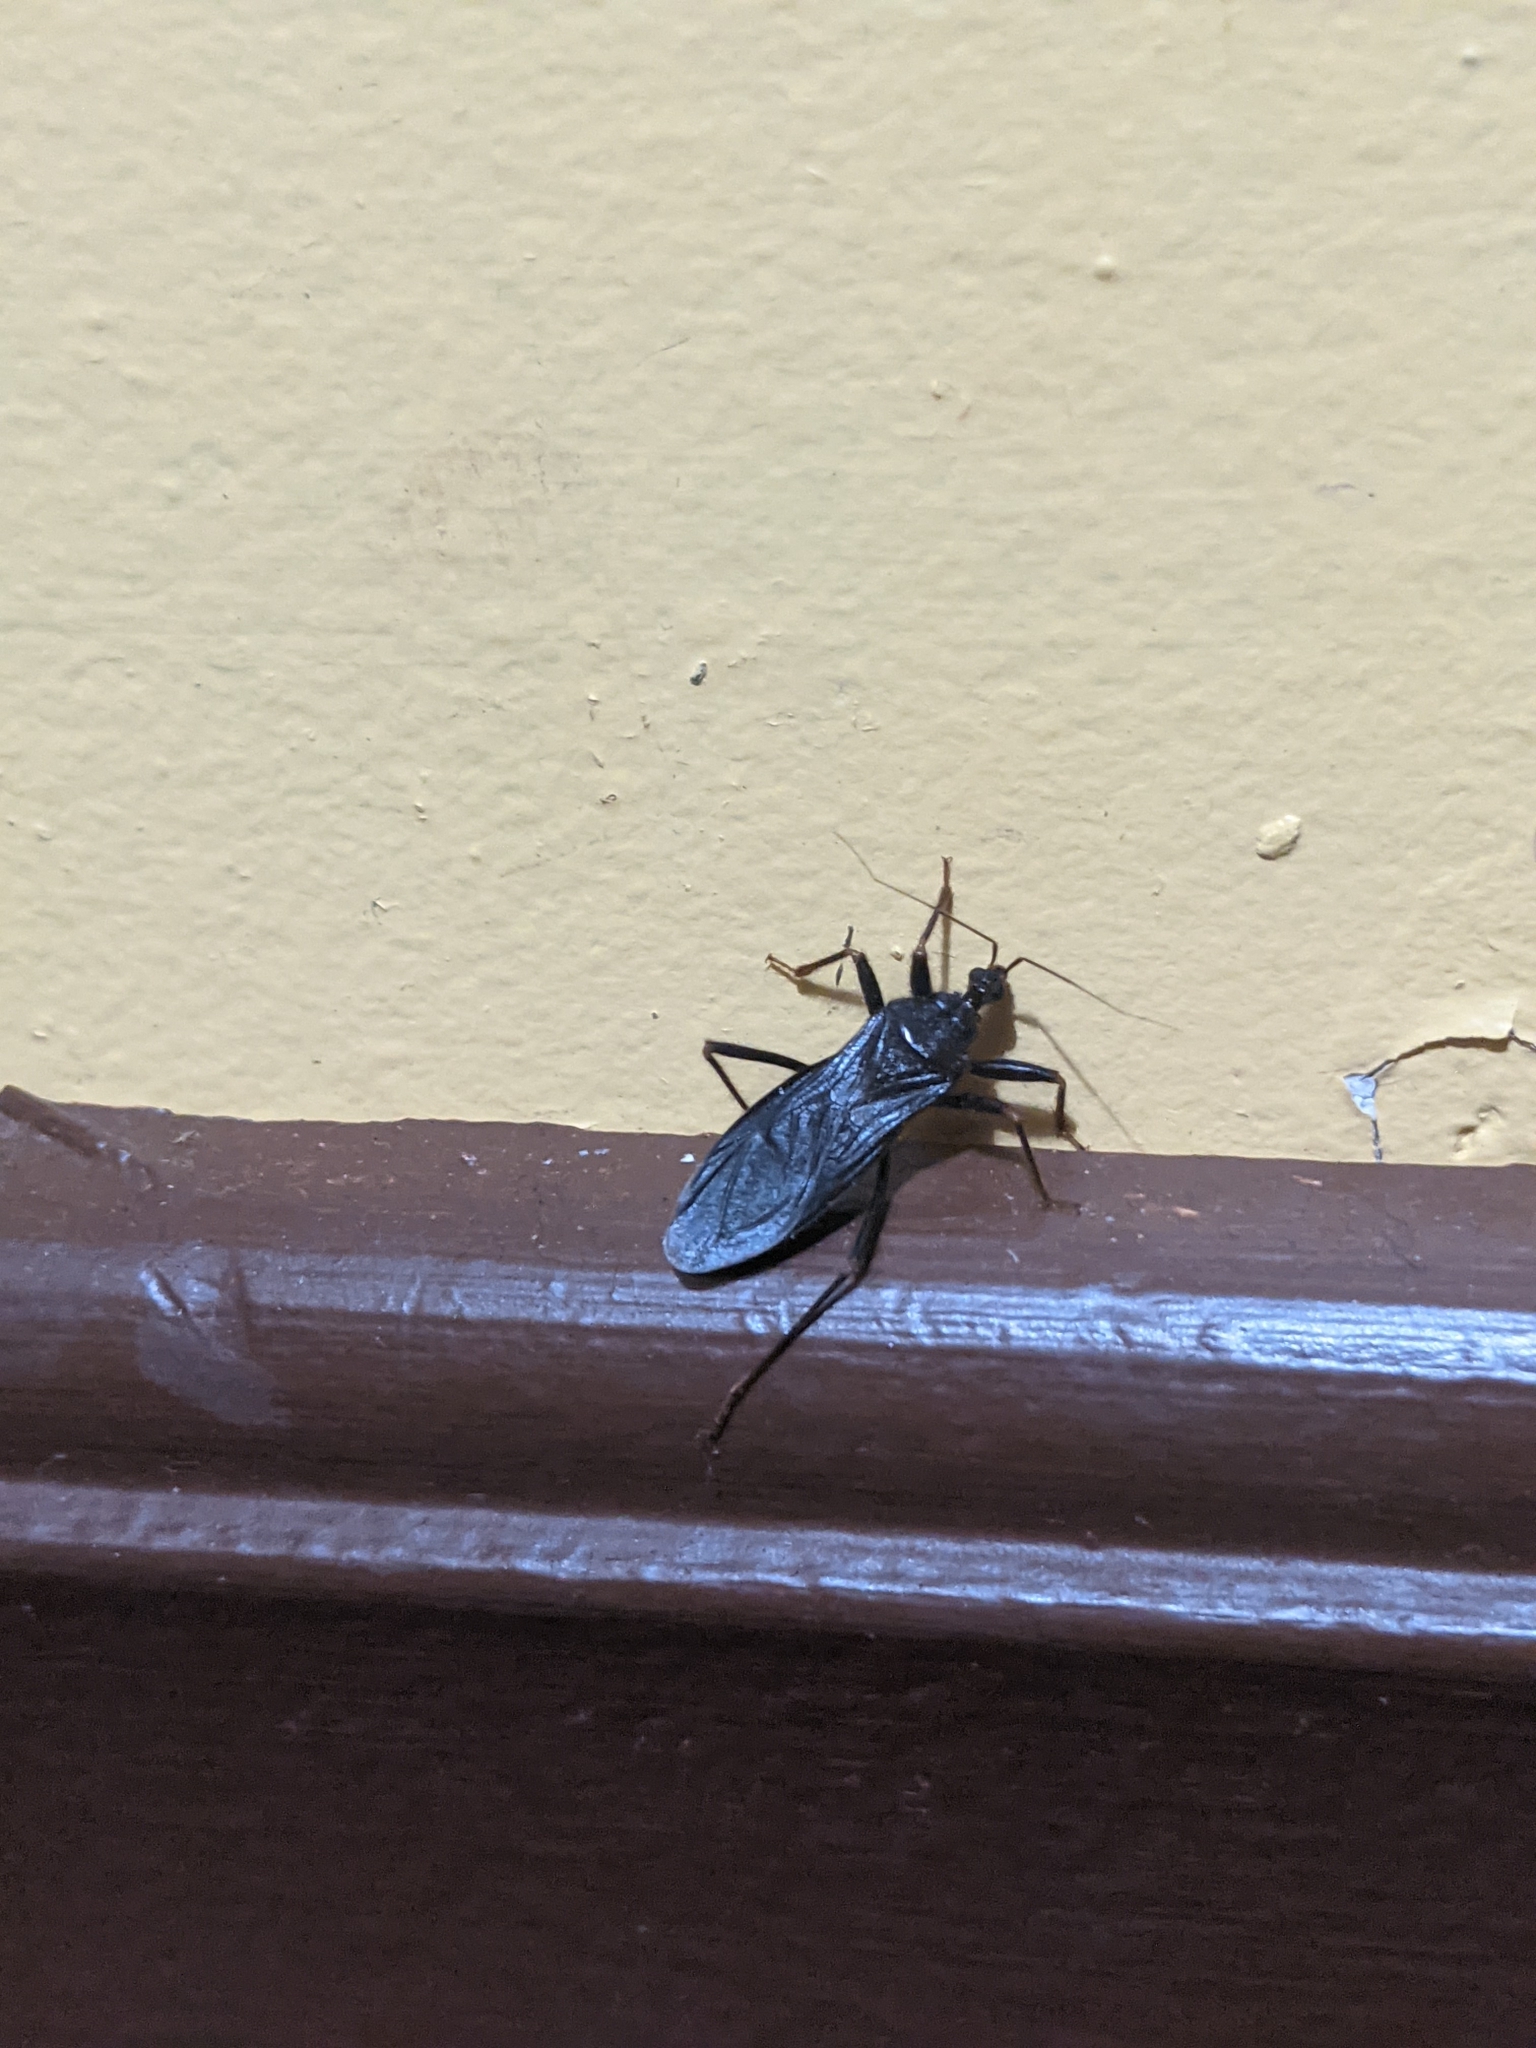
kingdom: Animalia
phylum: Arthropoda
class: Insecta
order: Hemiptera
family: Reduviidae
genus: Reduvius
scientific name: Reduvius personatus
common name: Masked hunter
